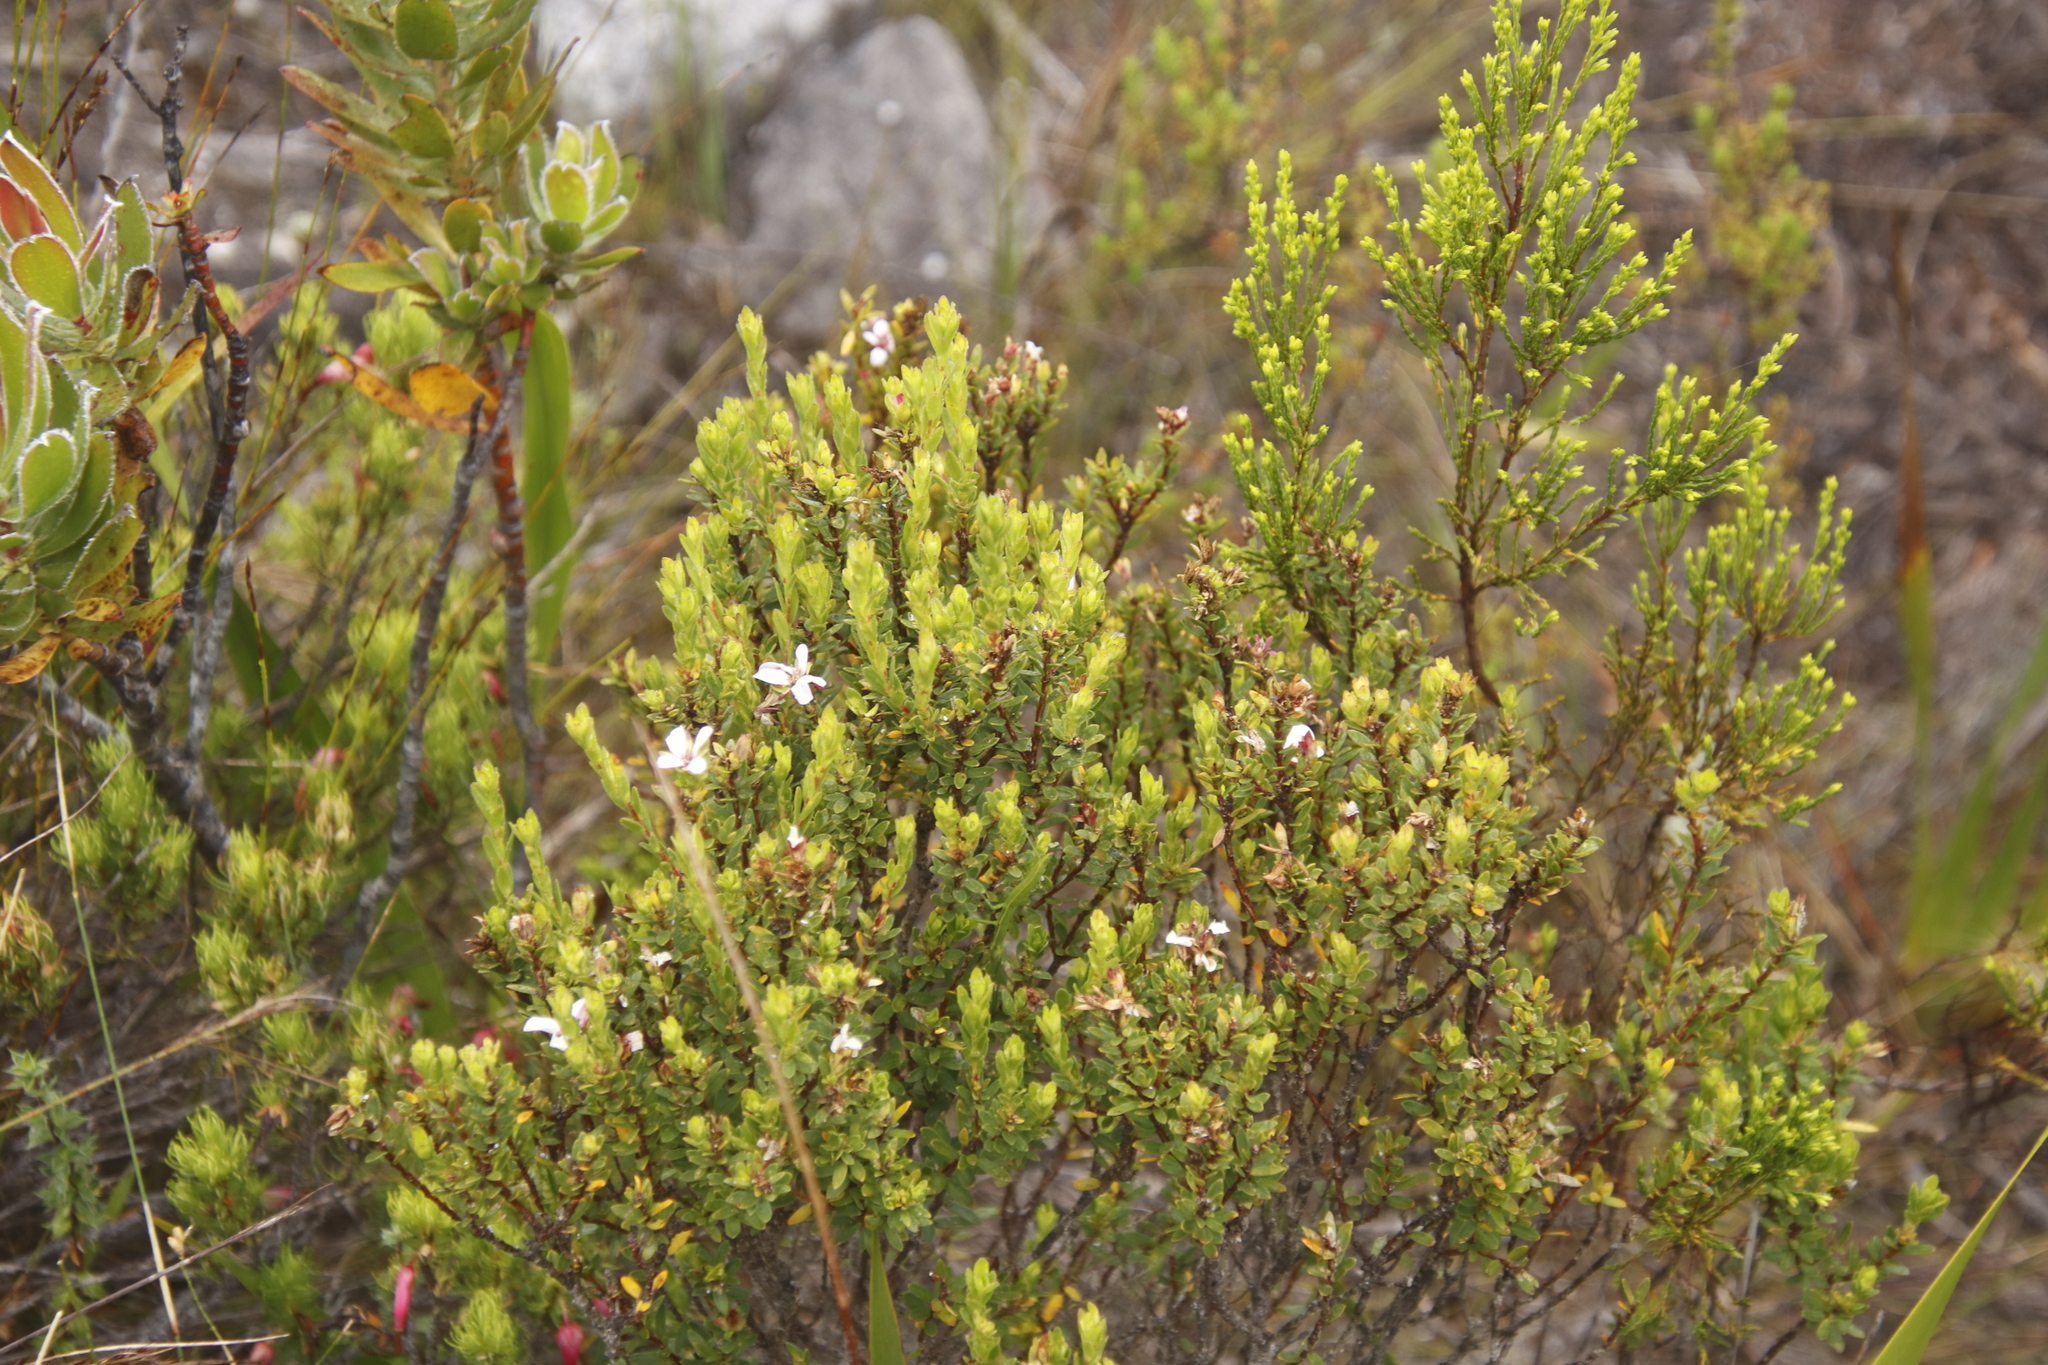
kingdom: Plantae
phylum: Tracheophyta
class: Magnoliopsida
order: Sapindales
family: Rutaceae
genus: Adenandra
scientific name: Adenandra villosa
